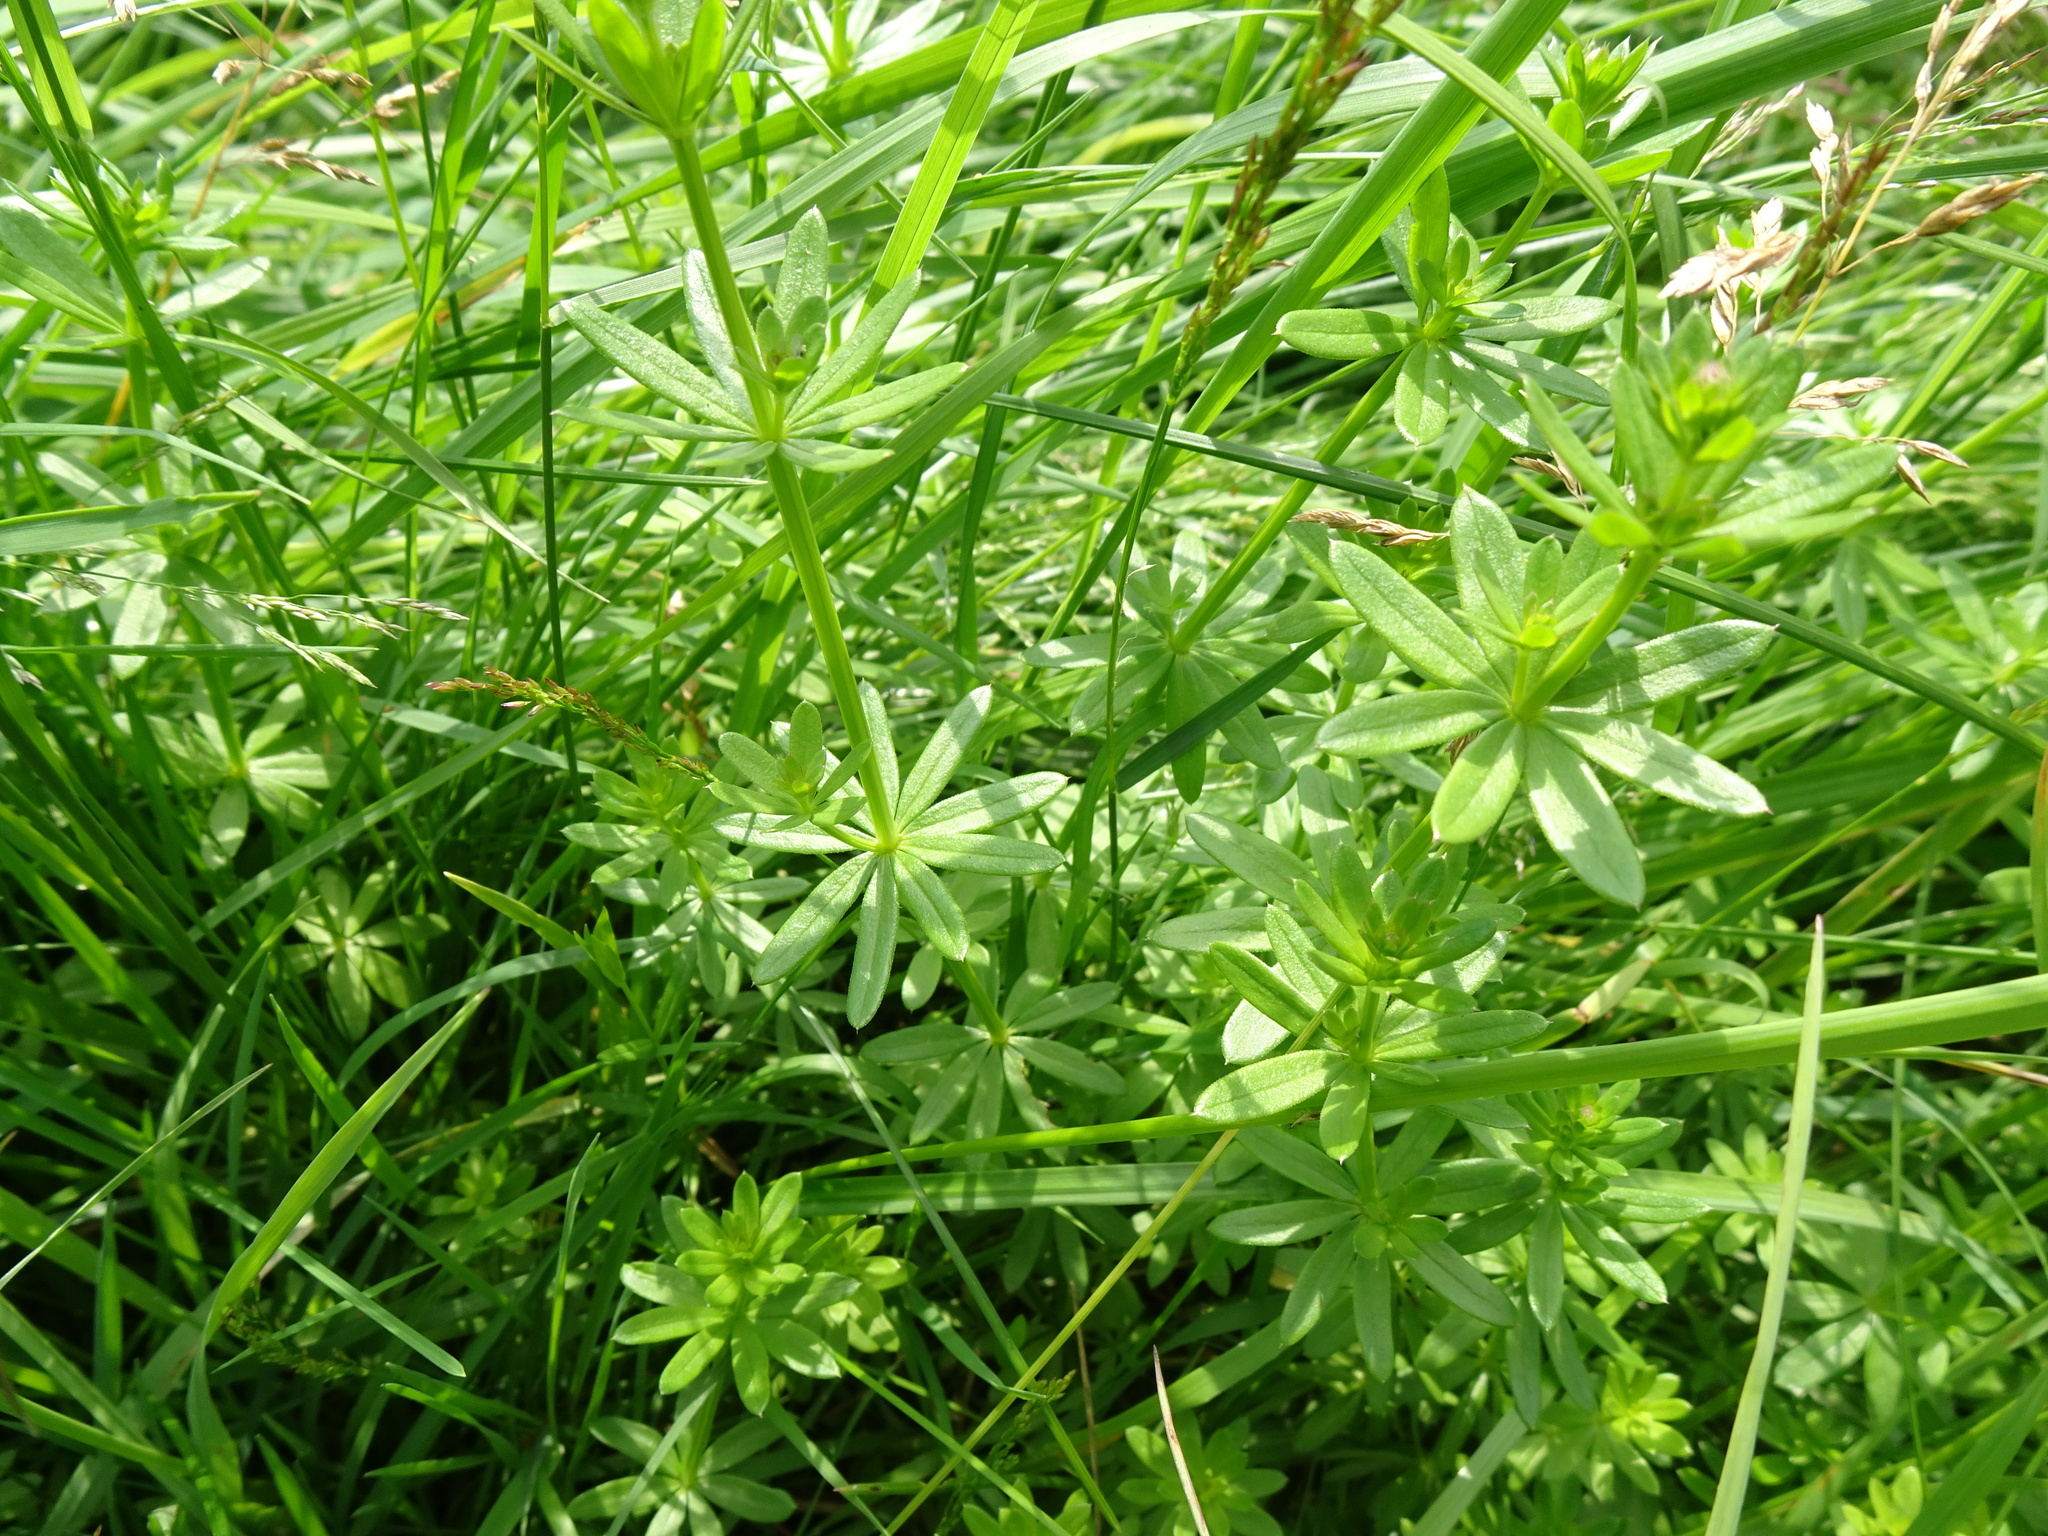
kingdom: Plantae
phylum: Tracheophyta
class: Magnoliopsida
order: Gentianales
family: Rubiaceae
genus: Galium
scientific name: Galium album
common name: White bedstraw
